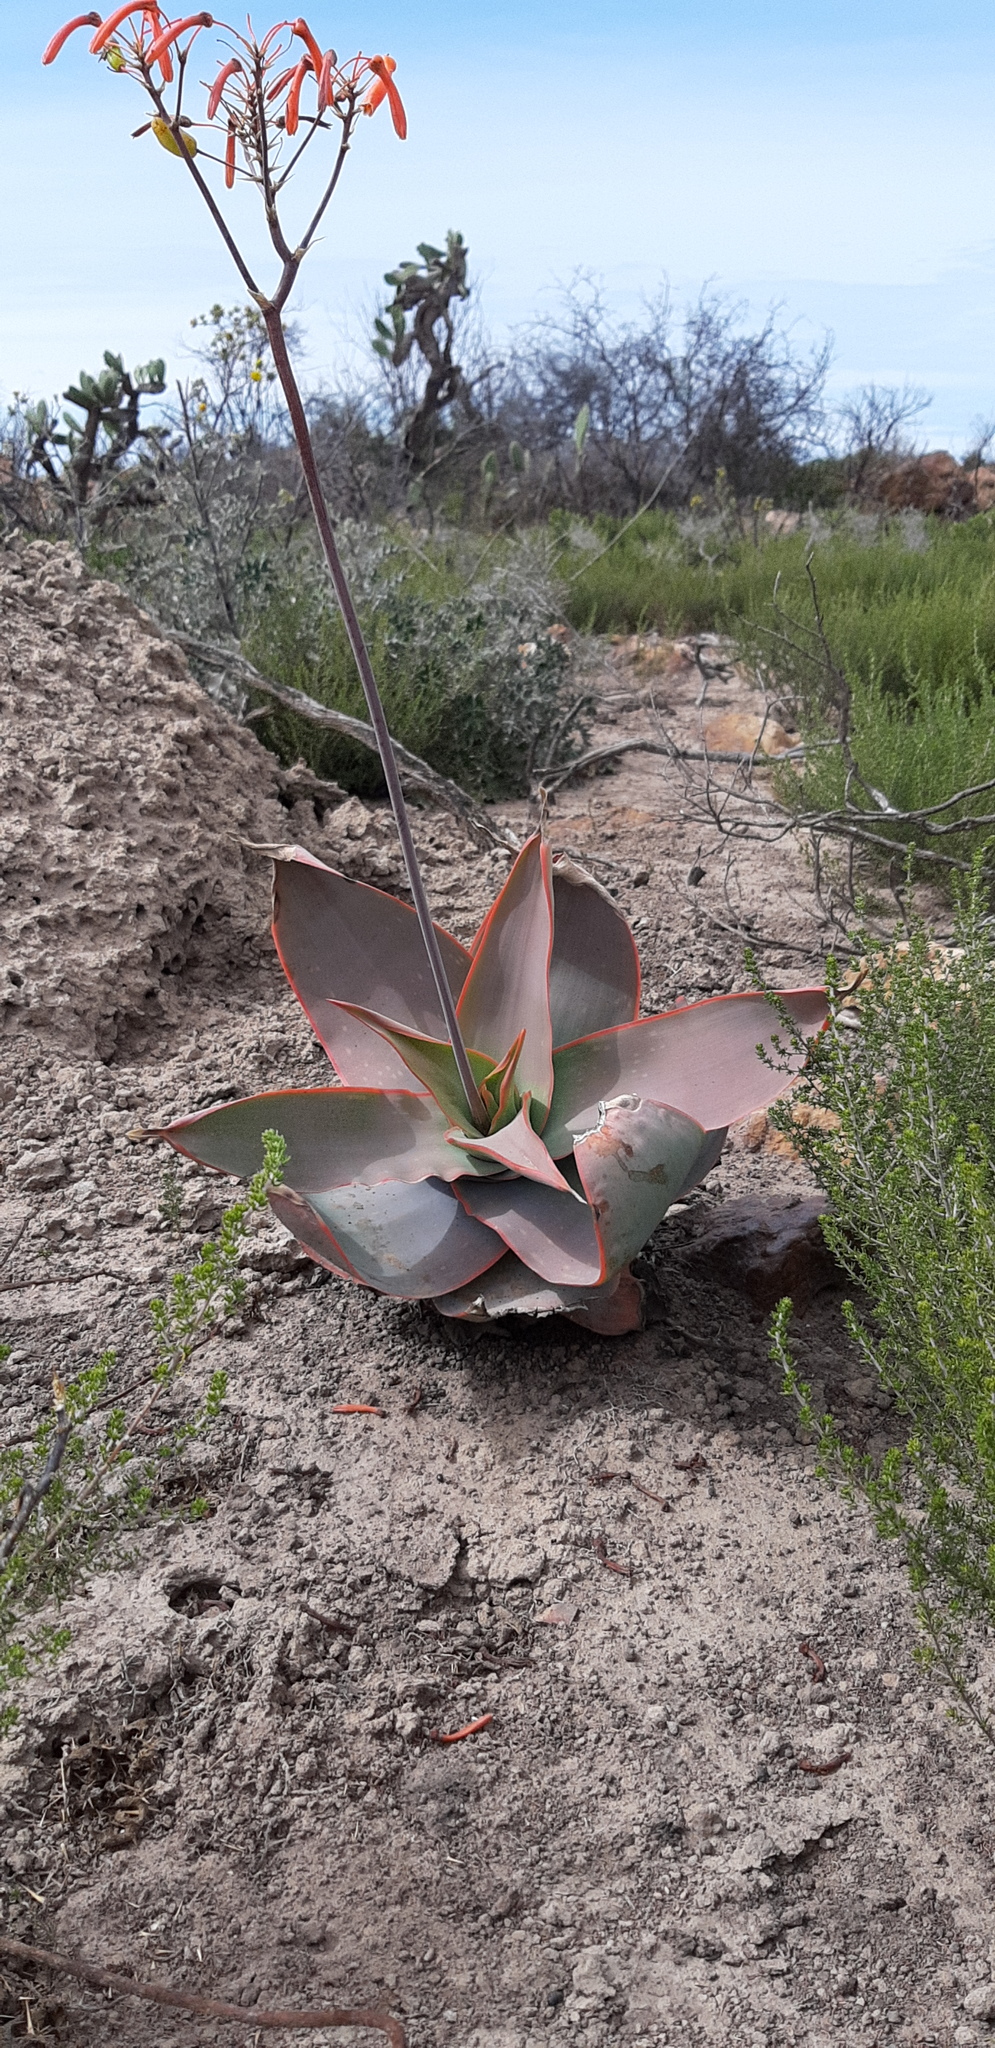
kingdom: Plantae
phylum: Tracheophyta
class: Liliopsida
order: Asparagales
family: Asphodelaceae
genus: Aloe
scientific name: Aloe striata
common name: Coral aloe
